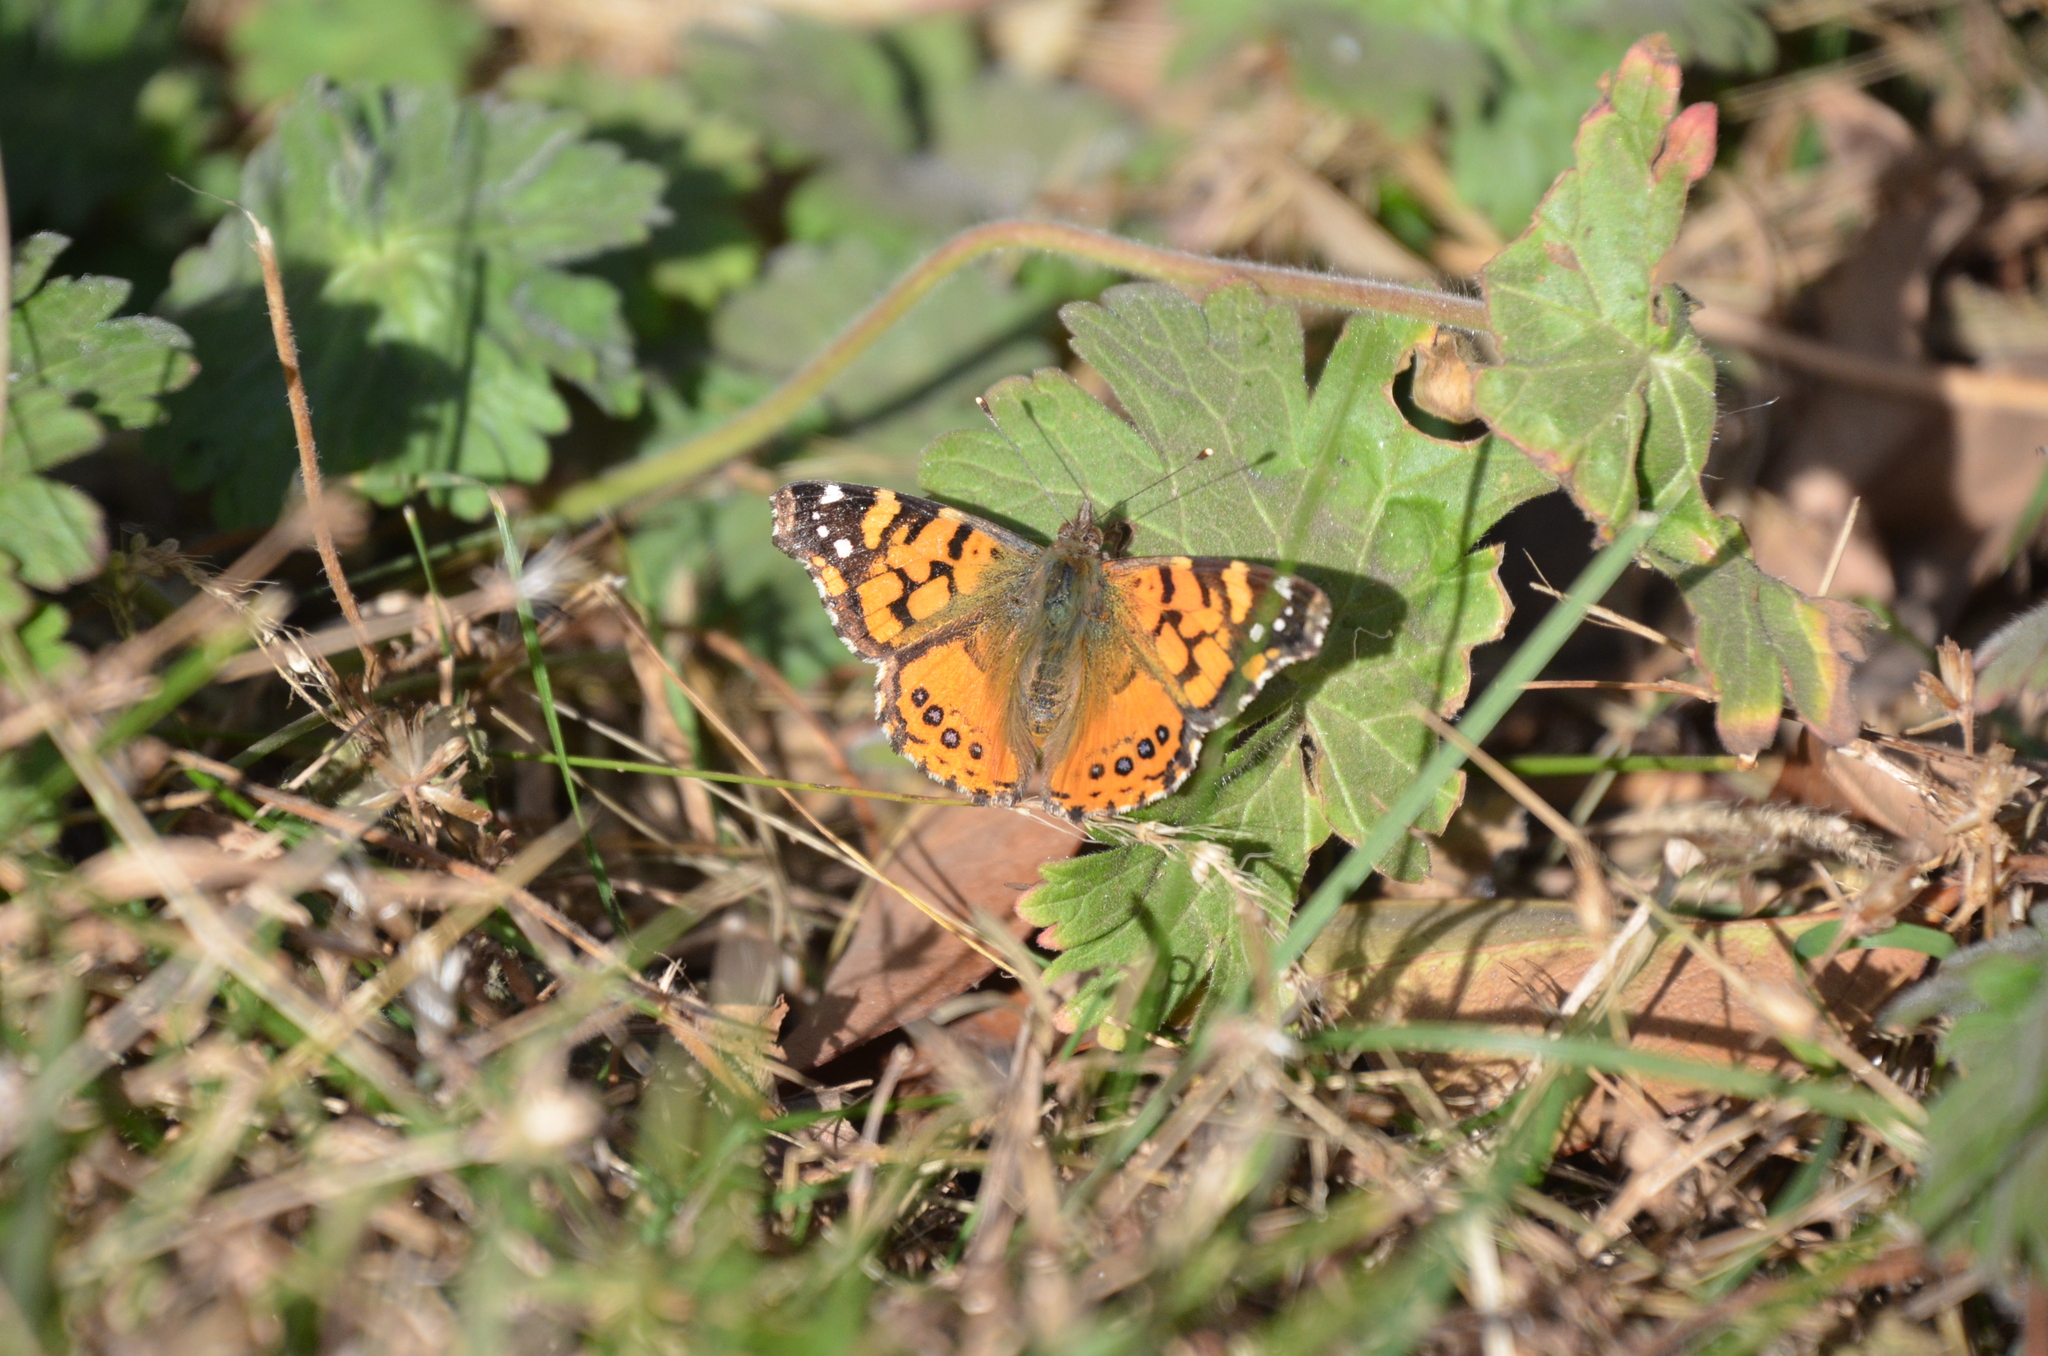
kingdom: Animalia
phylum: Arthropoda
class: Insecta
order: Lepidoptera
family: Nymphalidae
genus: Vanessa
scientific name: Vanessa carye
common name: Subtropical lady
